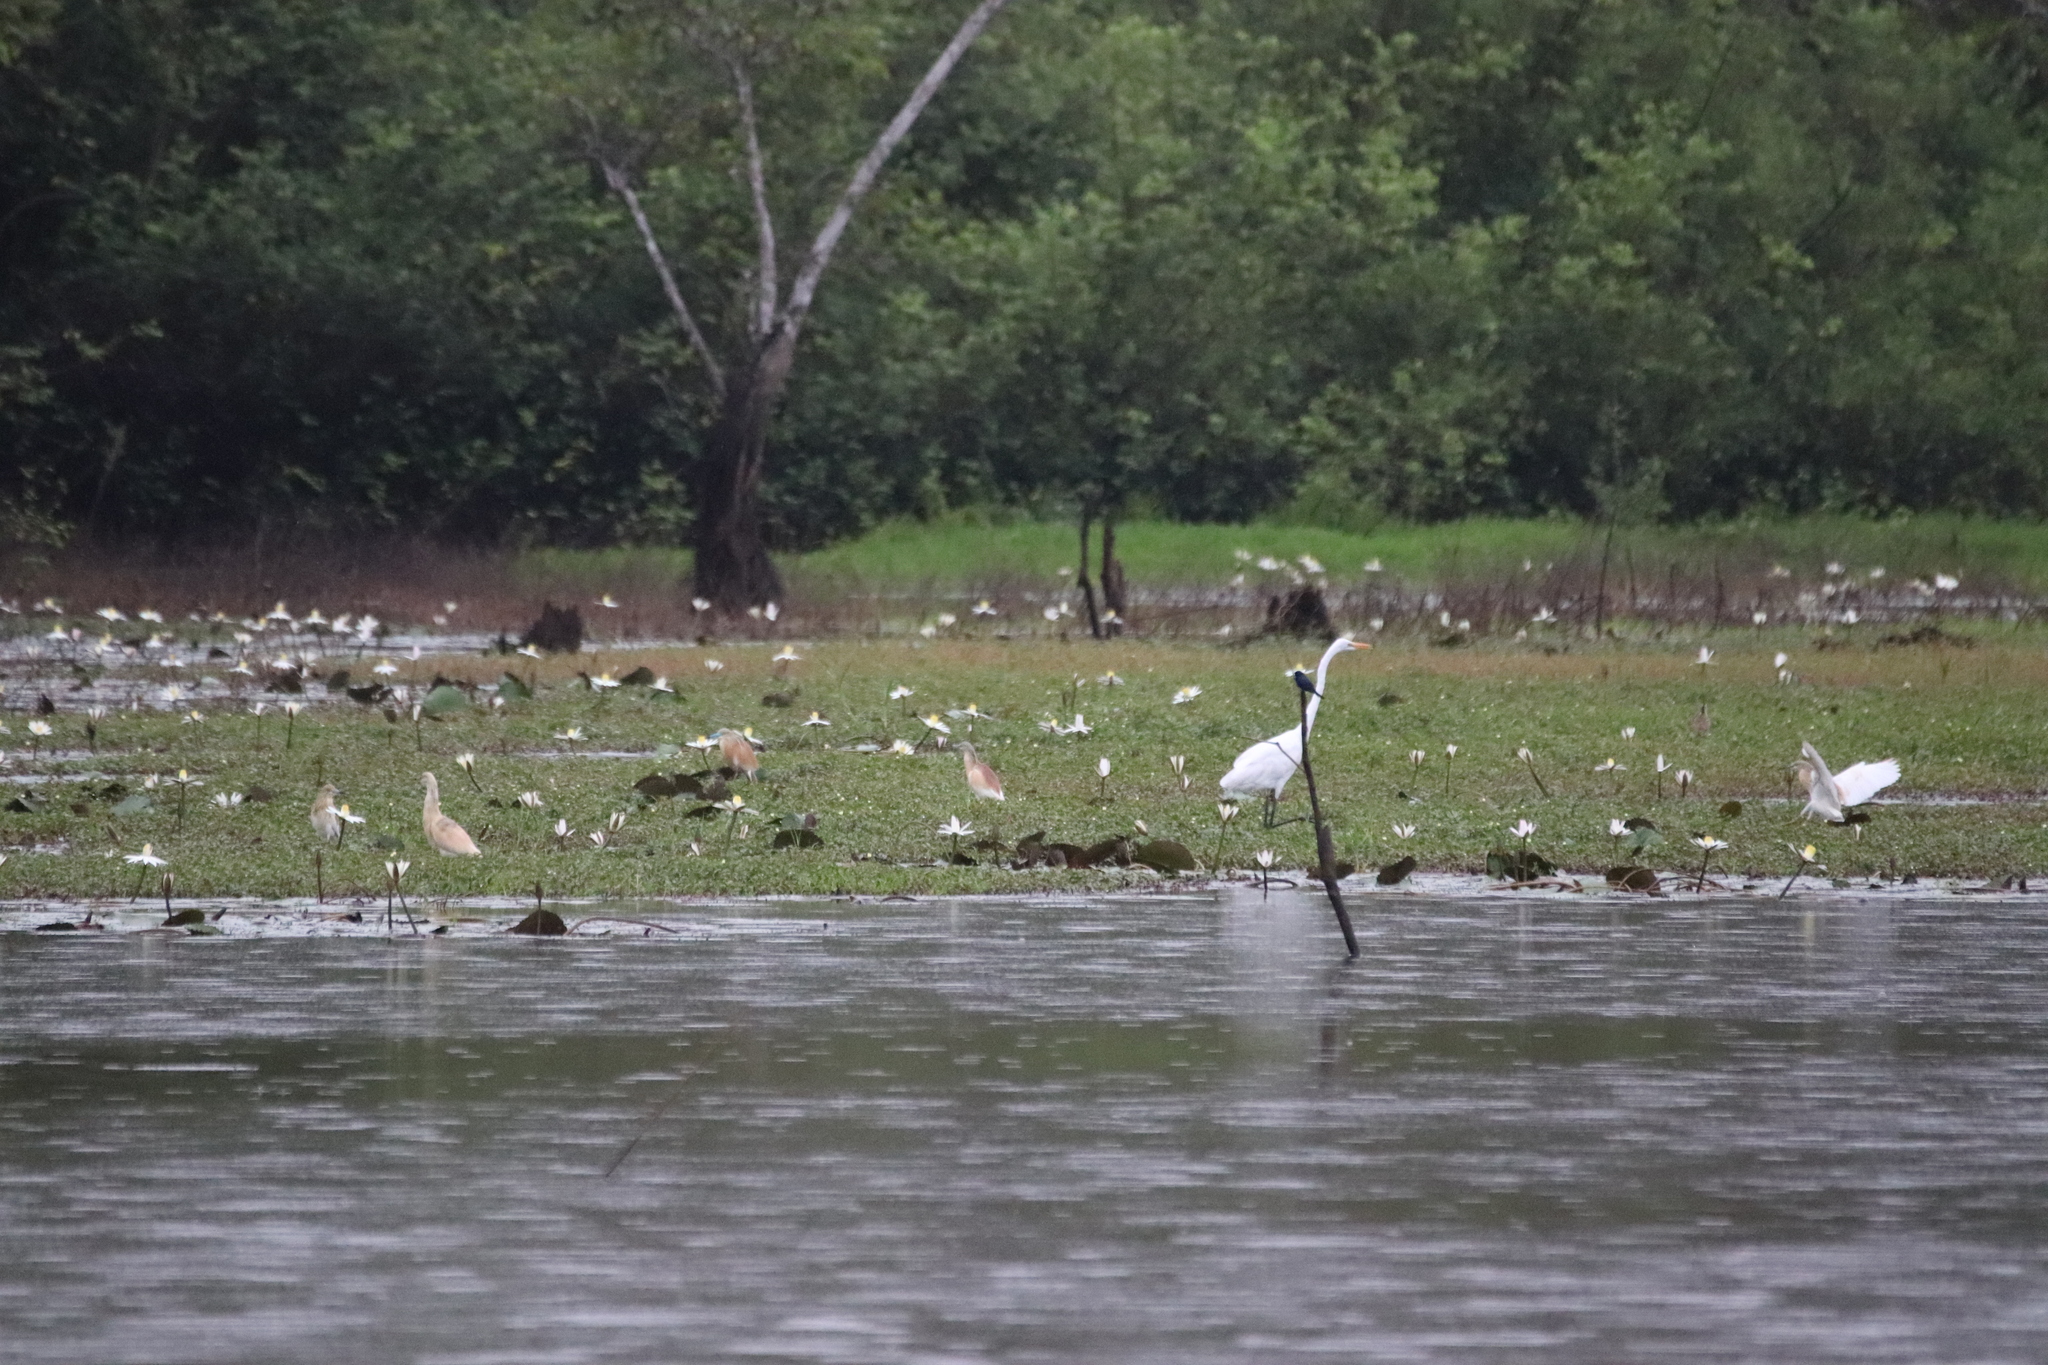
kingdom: Animalia
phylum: Chordata
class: Aves
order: Pelecaniformes
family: Ardeidae
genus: Ardeola
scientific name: Ardeola ralloides
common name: Squacco heron
